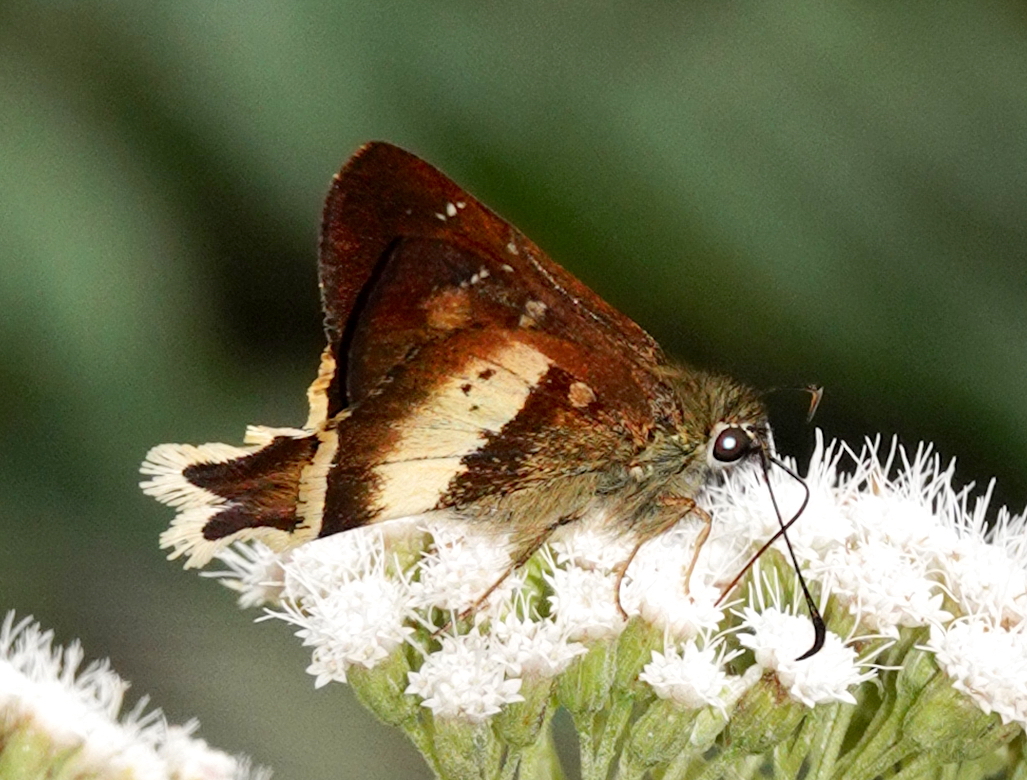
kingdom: Animalia
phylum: Arthropoda
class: Insecta
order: Lepidoptera
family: Hesperiidae
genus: Zestusa
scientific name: Zestusa levona
